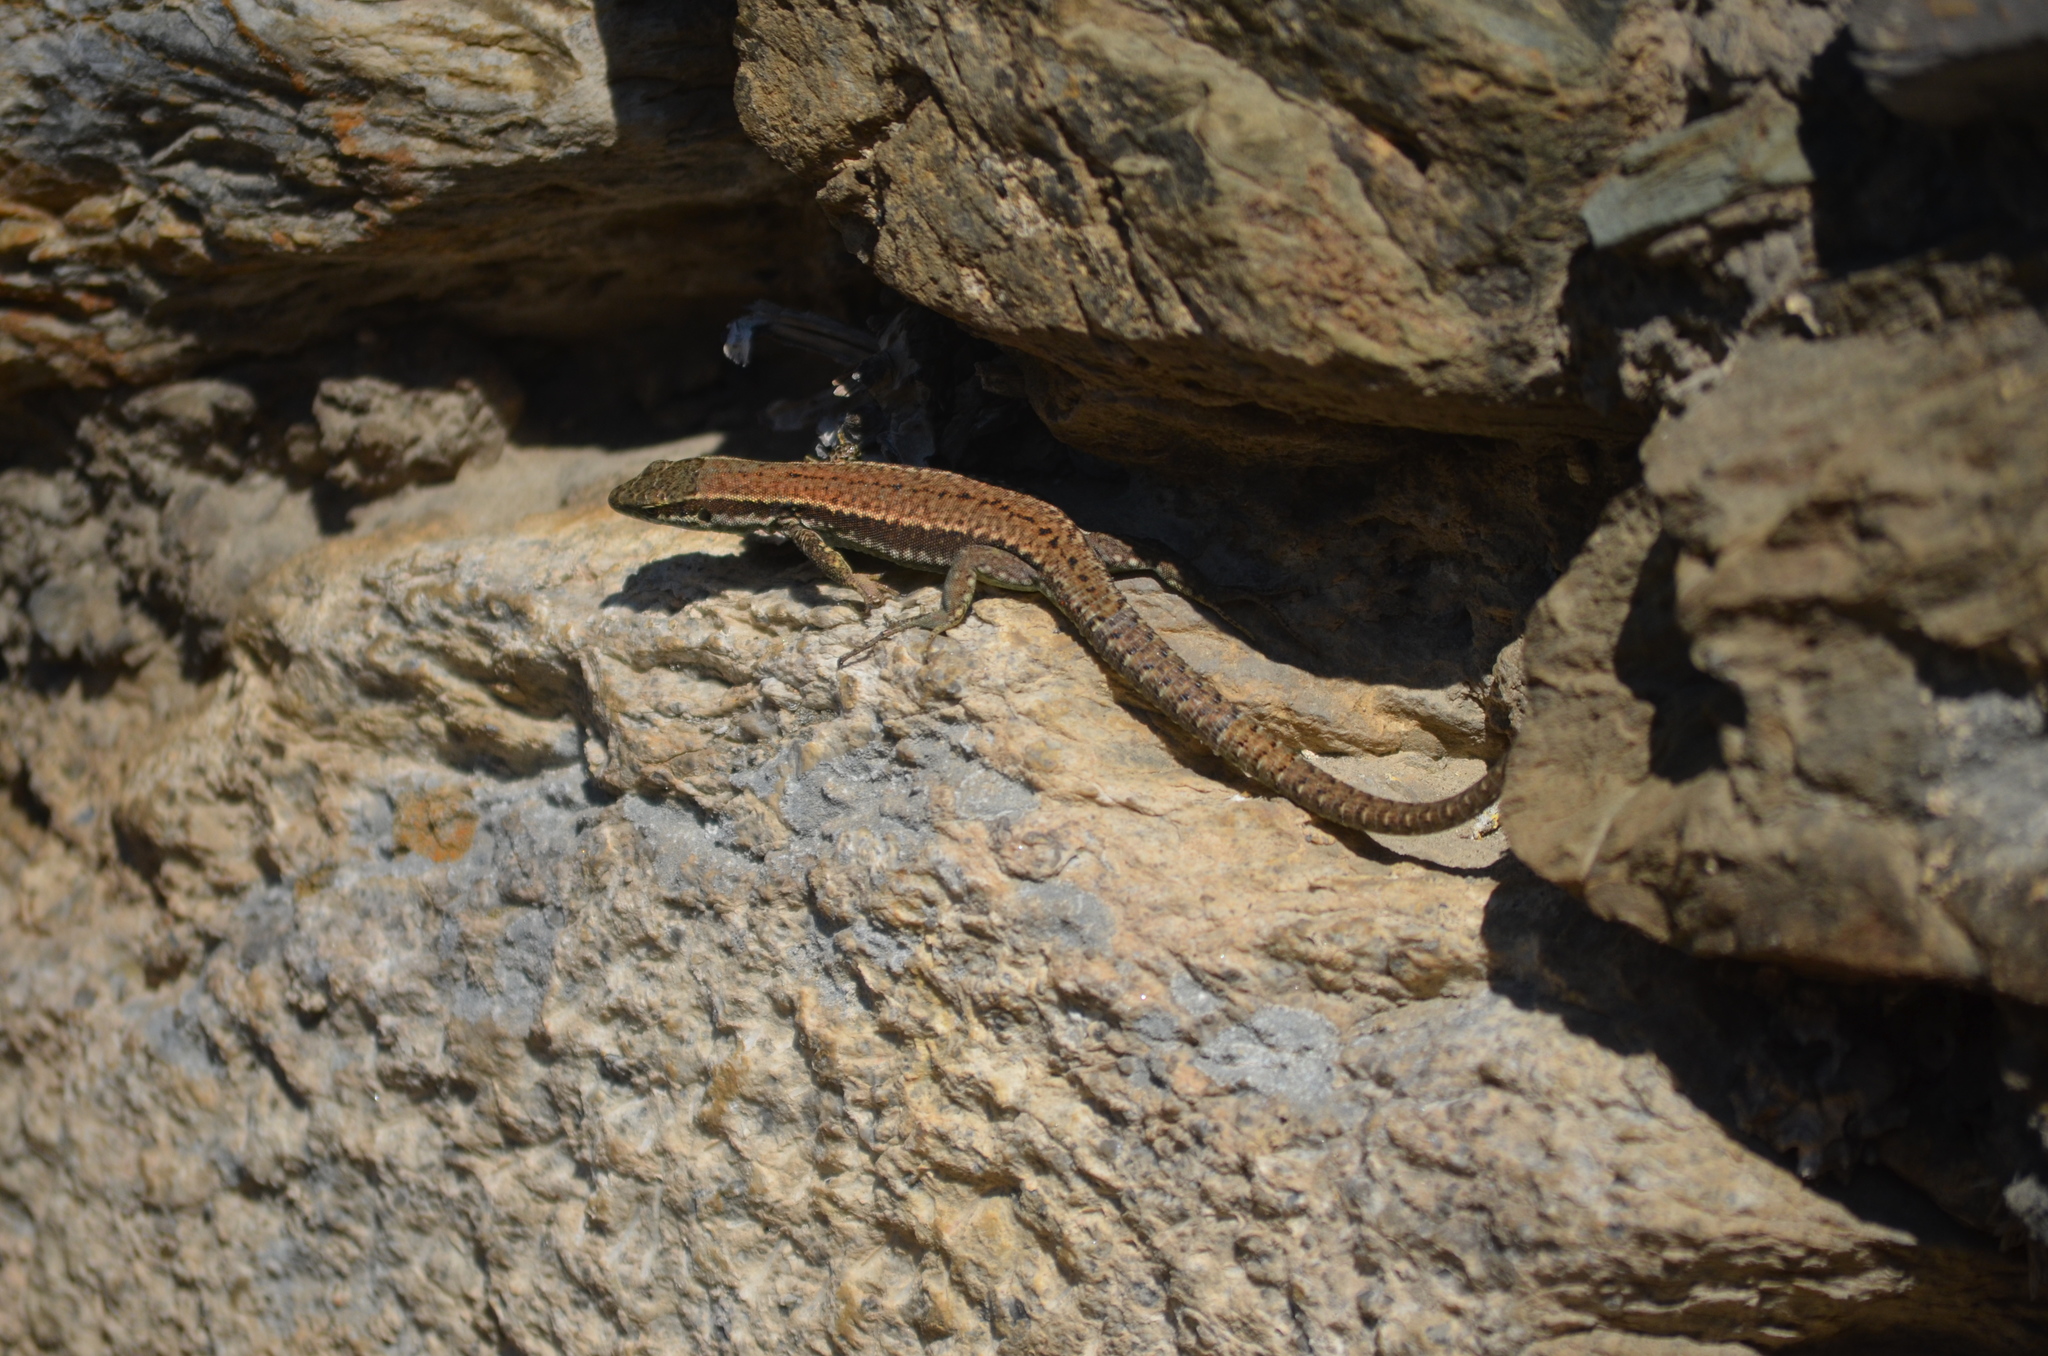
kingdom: Animalia
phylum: Chordata
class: Squamata
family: Lacertidae
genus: Podarcis
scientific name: Podarcis muralis
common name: Common wall lizard
